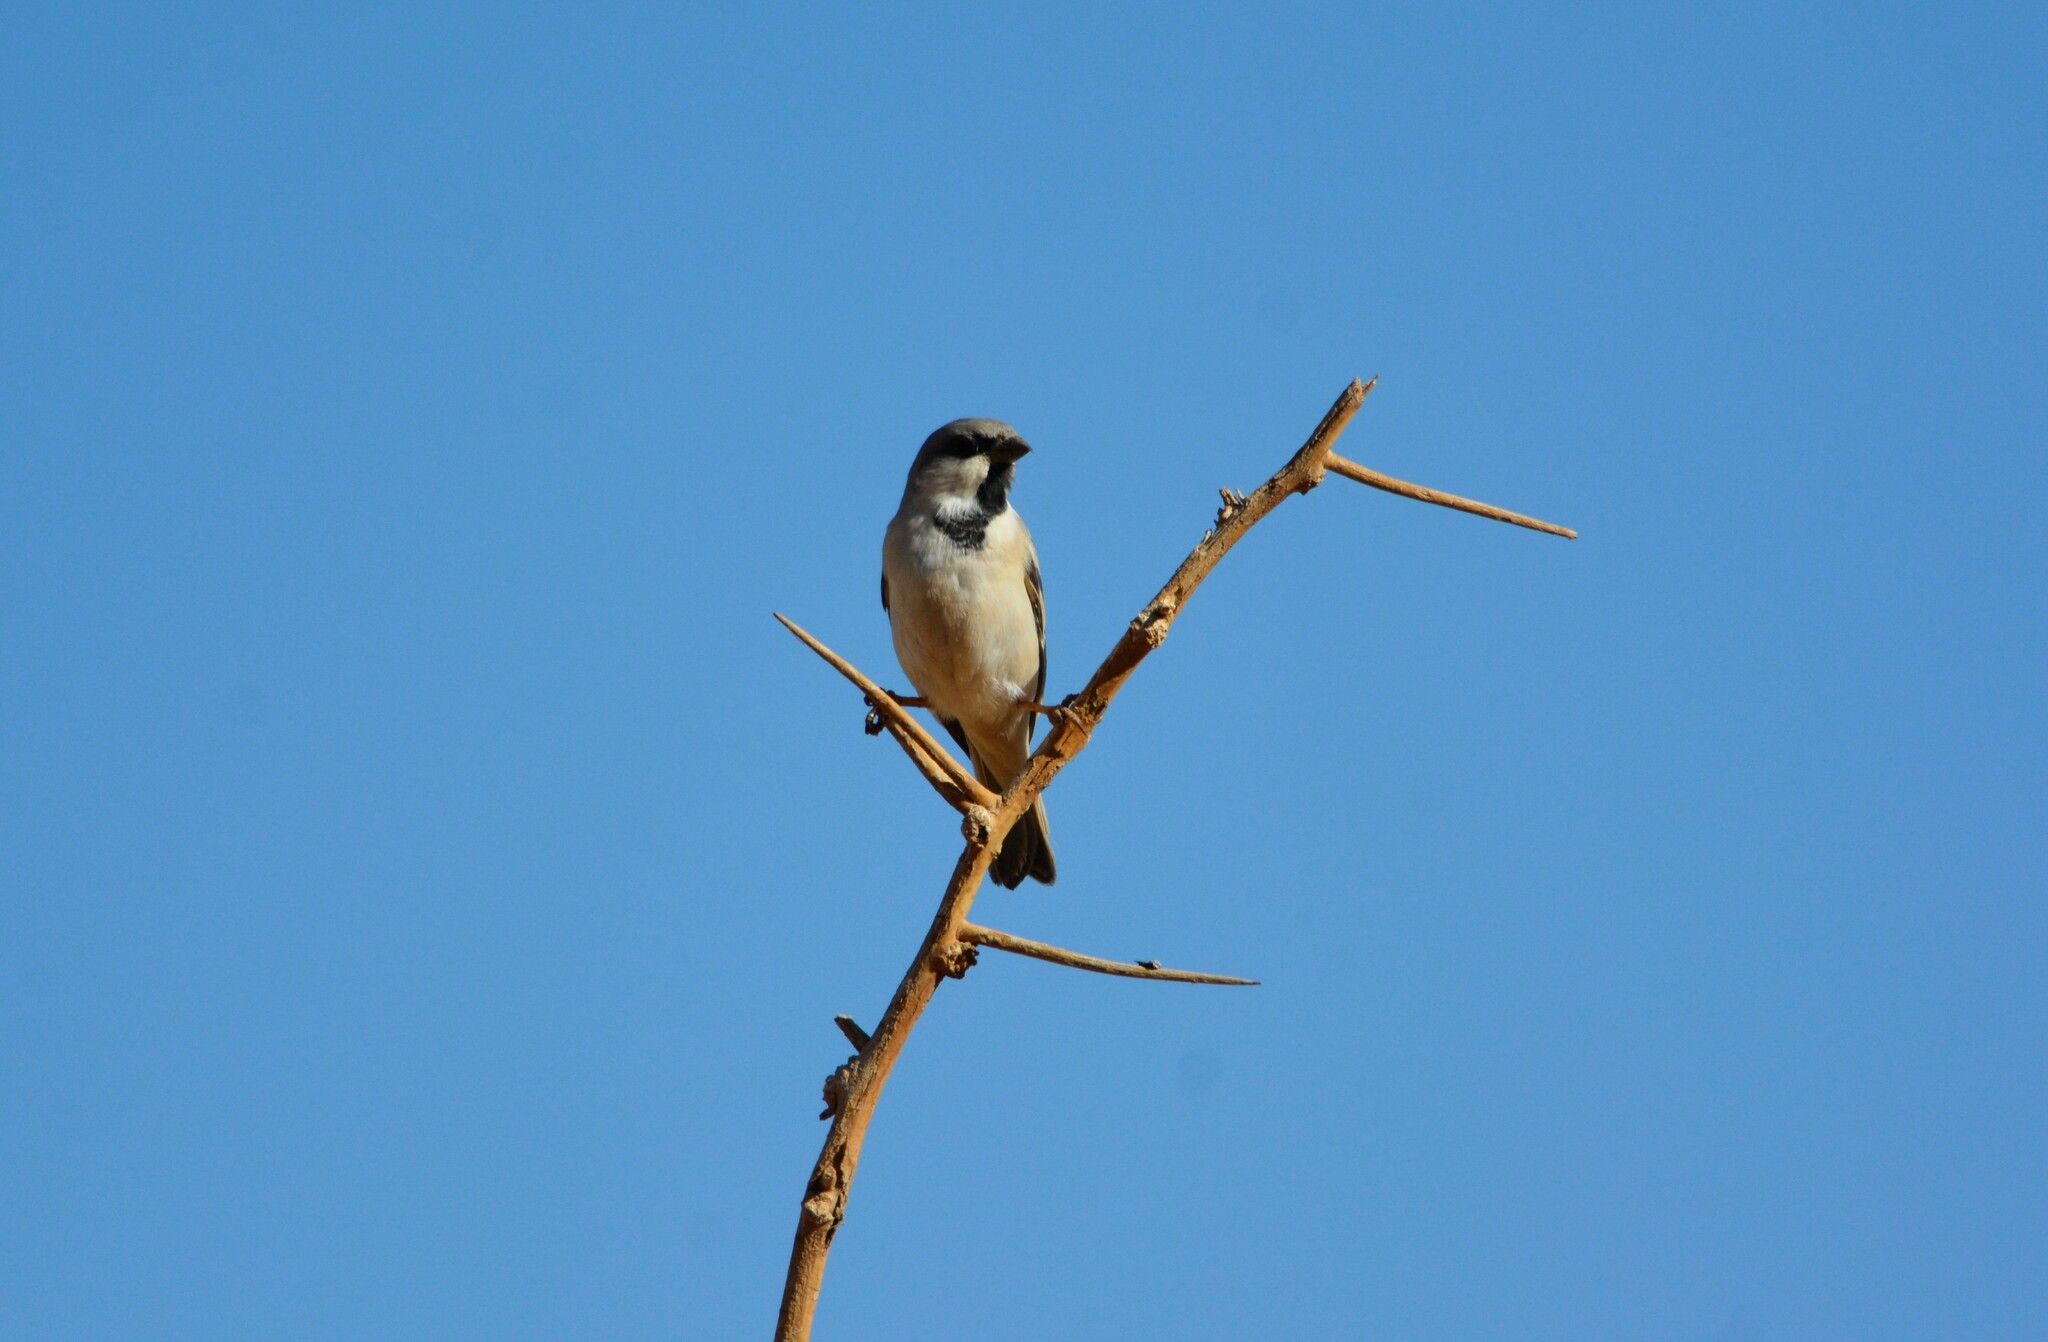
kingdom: Animalia
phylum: Chordata
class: Aves
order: Passeriformes
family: Passeridae
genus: Passer
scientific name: Passer simplex
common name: Desert sparrow
